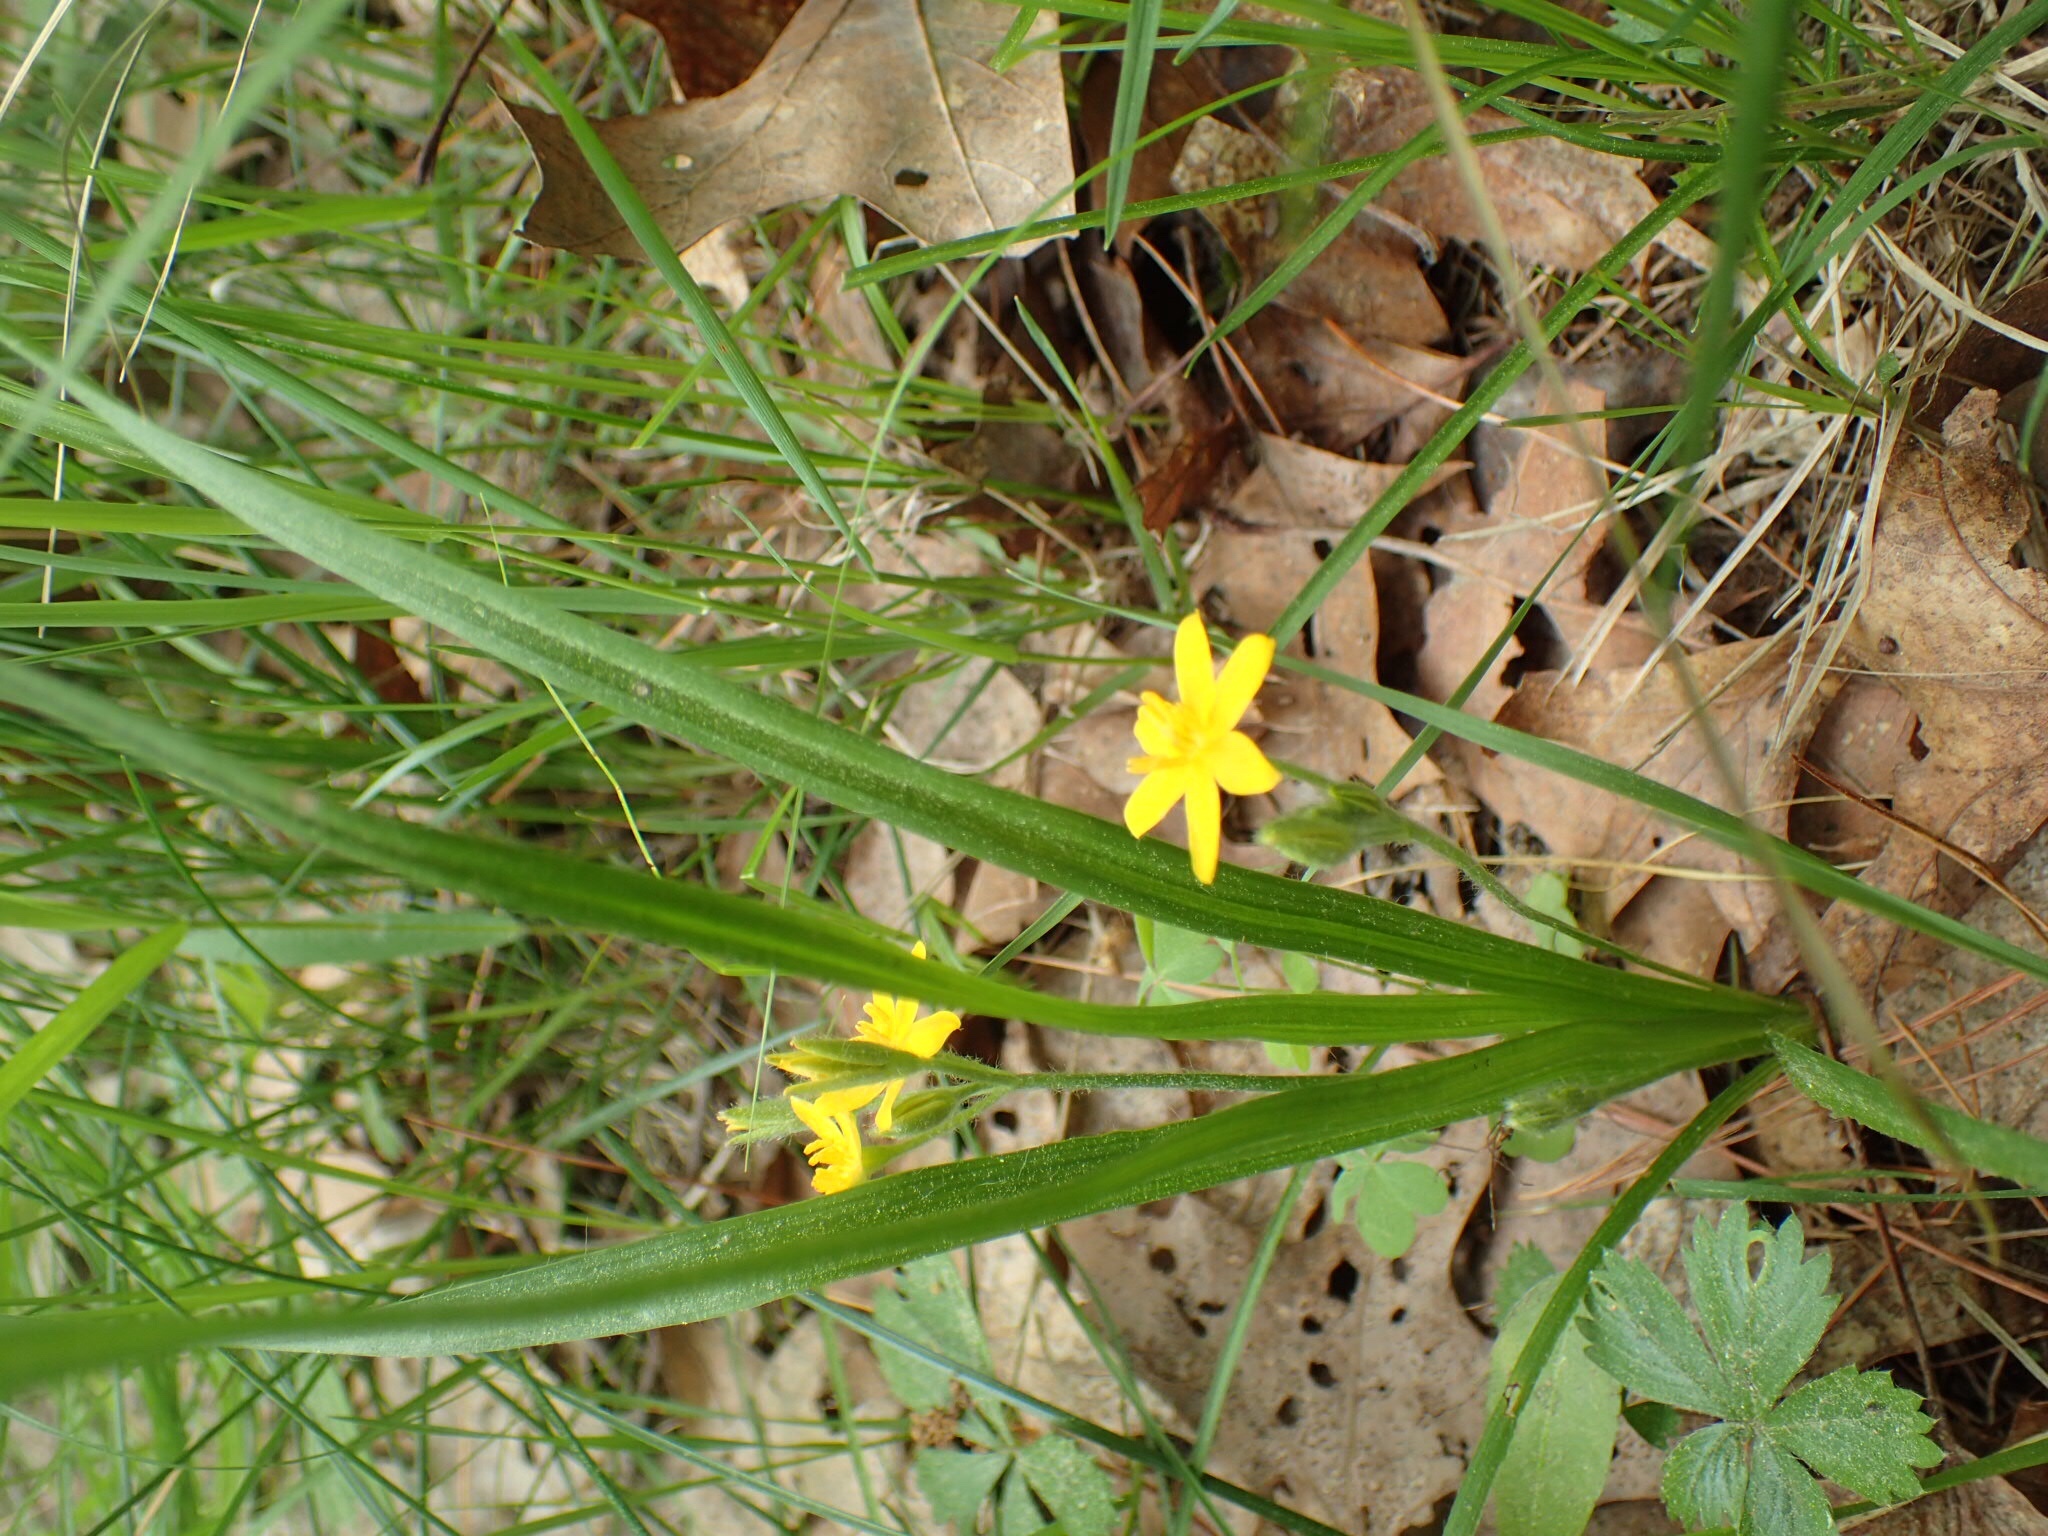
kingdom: Plantae
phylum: Tracheophyta
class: Liliopsida
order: Asparagales
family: Hypoxidaceae
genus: Hypoxis
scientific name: Hypoxis hirsuta
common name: Common goldstar
